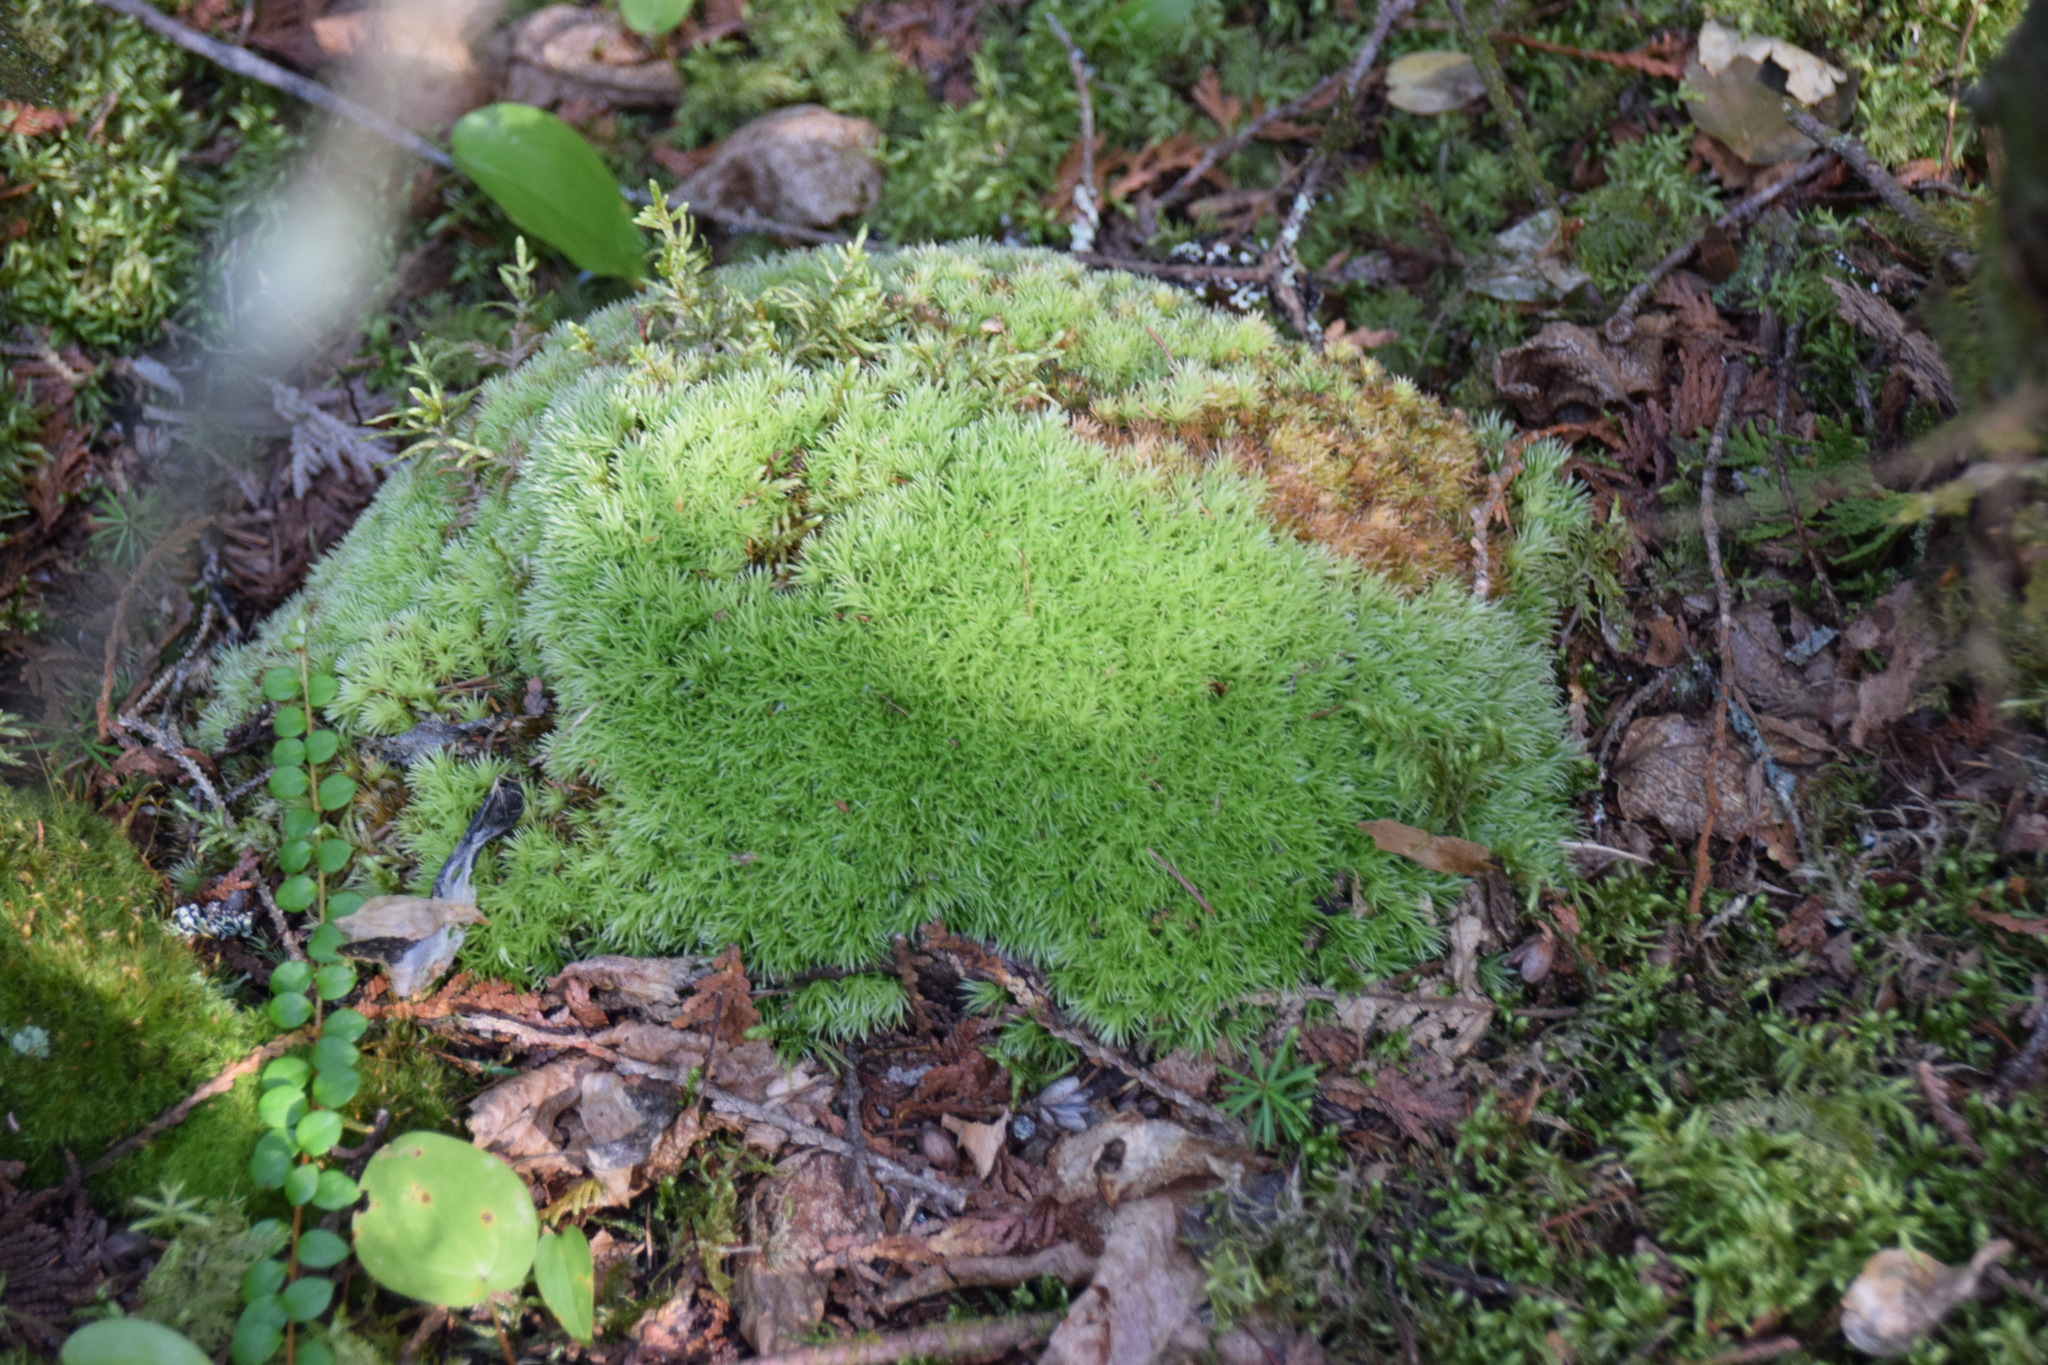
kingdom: Plantae
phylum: Bryophyta
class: Bryopsida
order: Dicranales
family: Leucobryaceae
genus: Leucobryum
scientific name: Leucobryum glaucum
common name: Large white-moss
